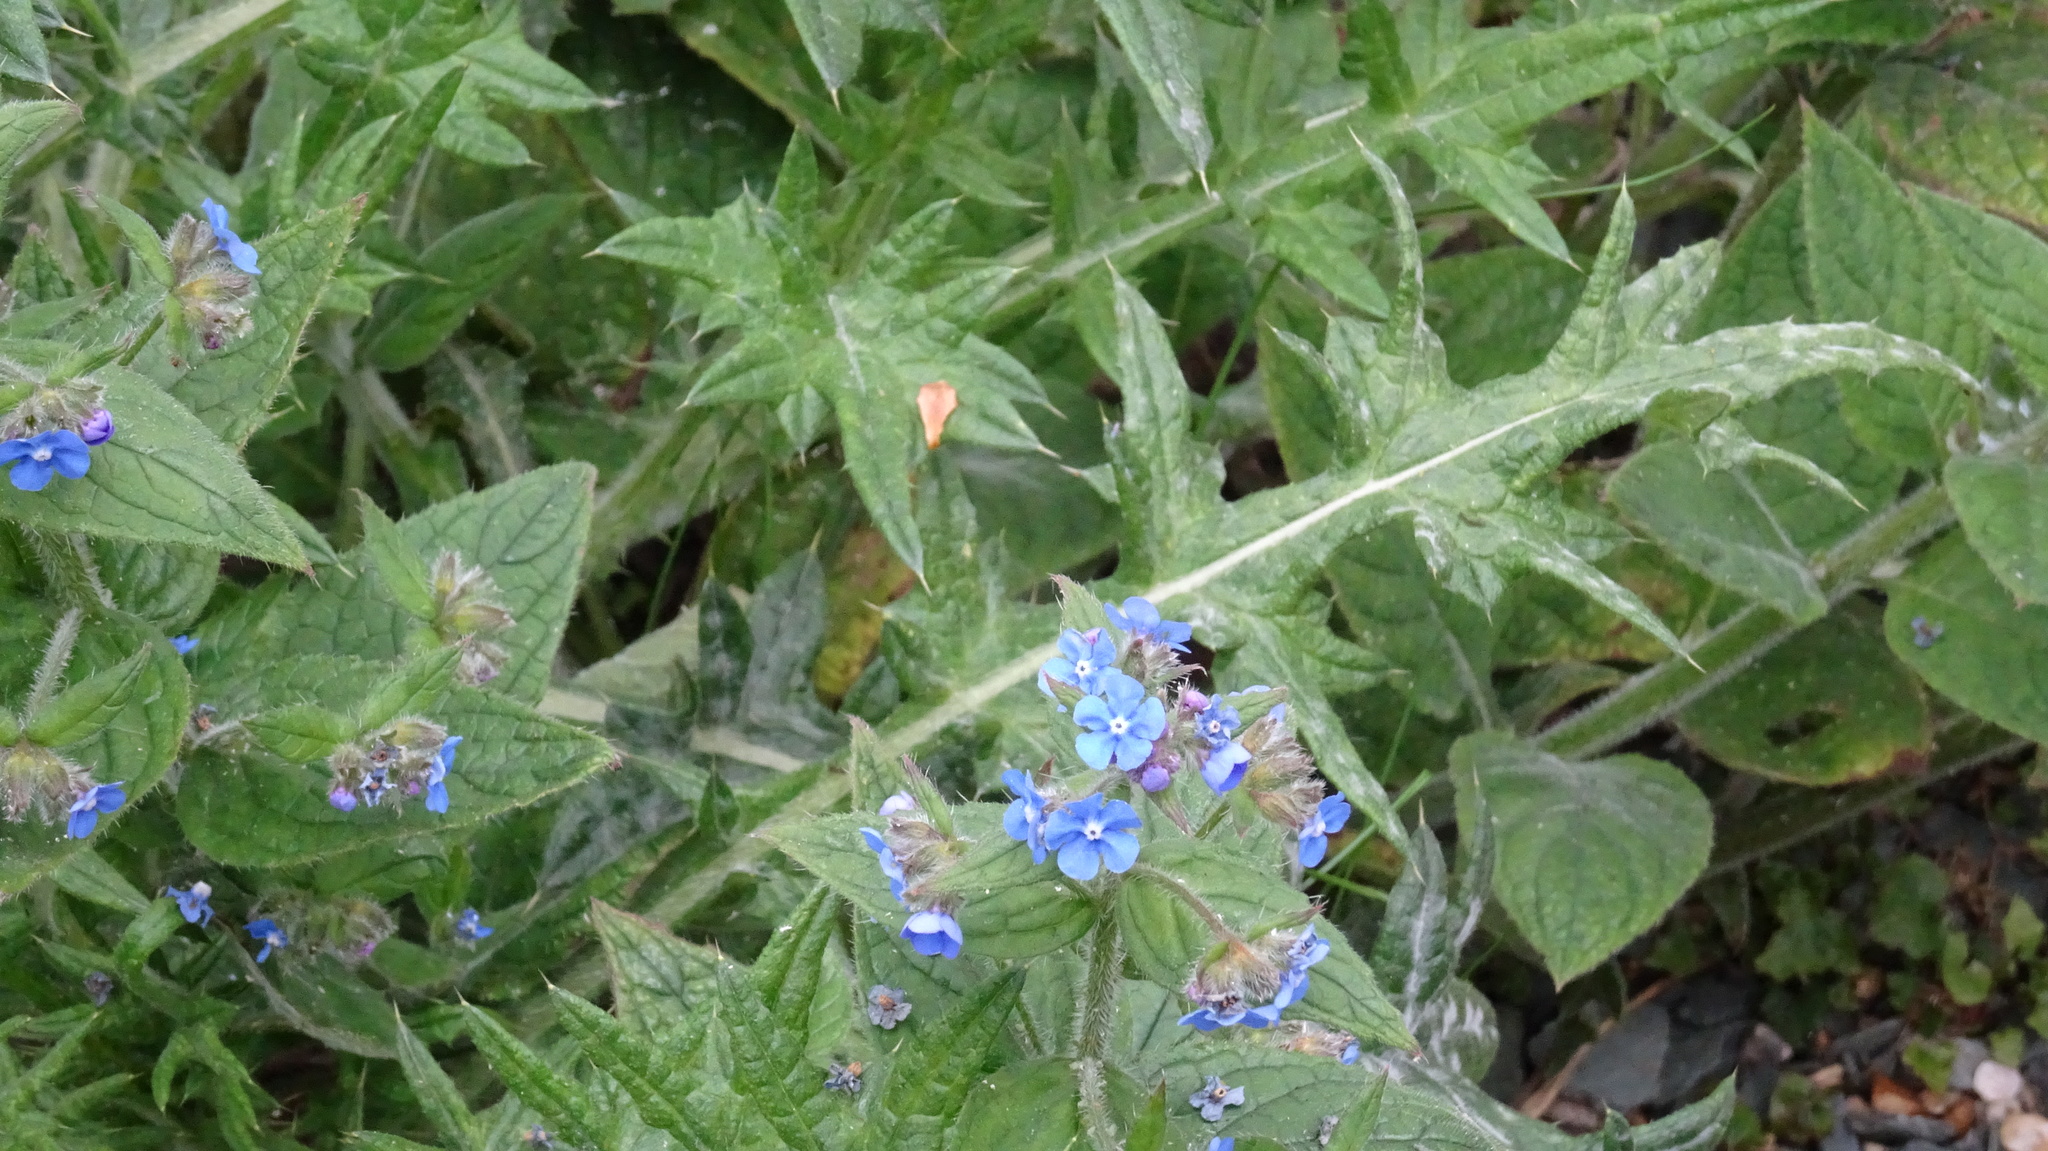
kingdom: Plantae
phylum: Tracheophyta
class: Magnoliopsida
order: Boraginales
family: Boraginaceae
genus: Pentaglottis
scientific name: Pentaglottis sempervirens
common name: Green alkanet
